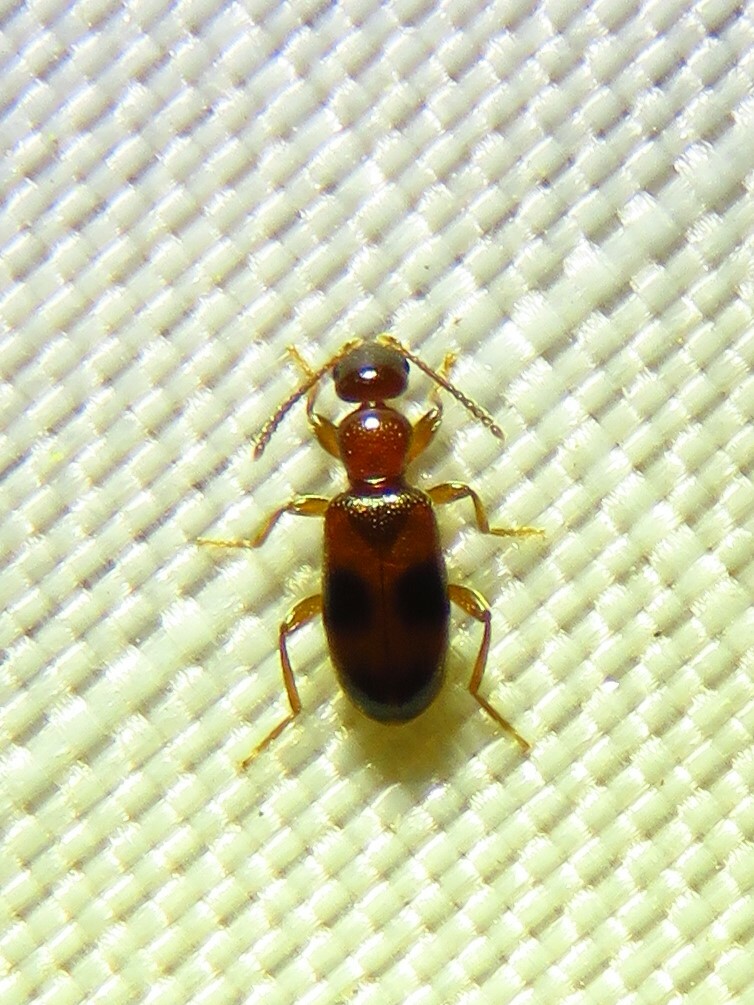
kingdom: Animalia
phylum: Arthropoda
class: Insecta
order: Coleoptera
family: Anthicidae
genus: Vacusus
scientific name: Vacusus vicinus
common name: Antlike flower beetle
